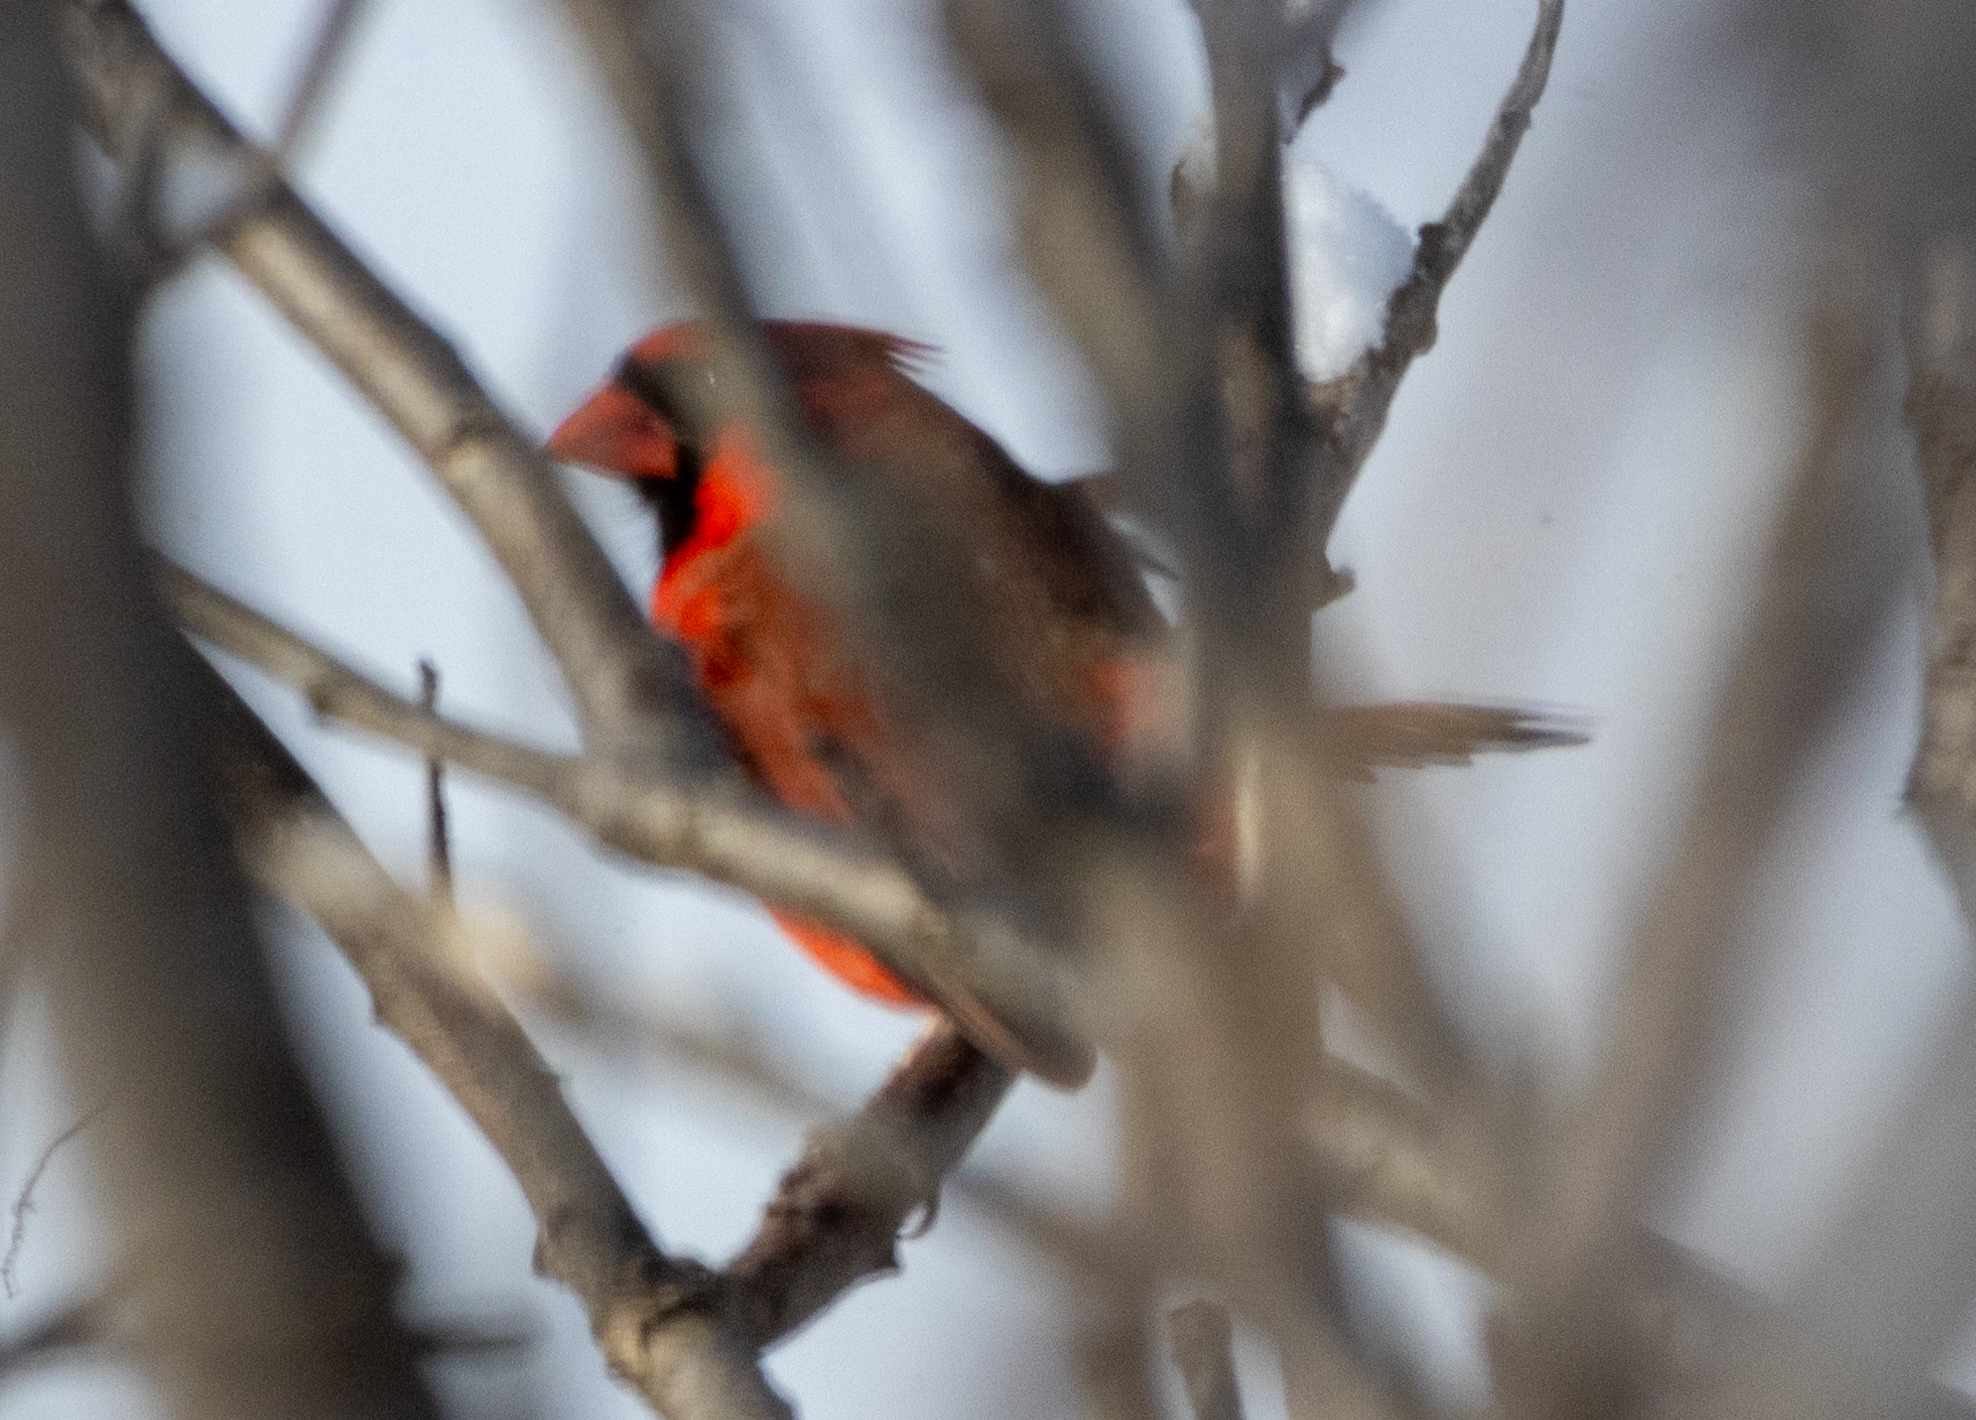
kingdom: Animalia
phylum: Chordata
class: Aves
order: Passeriformes
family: Cardinalidae
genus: Cardinalis
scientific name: Cardinalis cardinalis
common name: Northern cardinal
